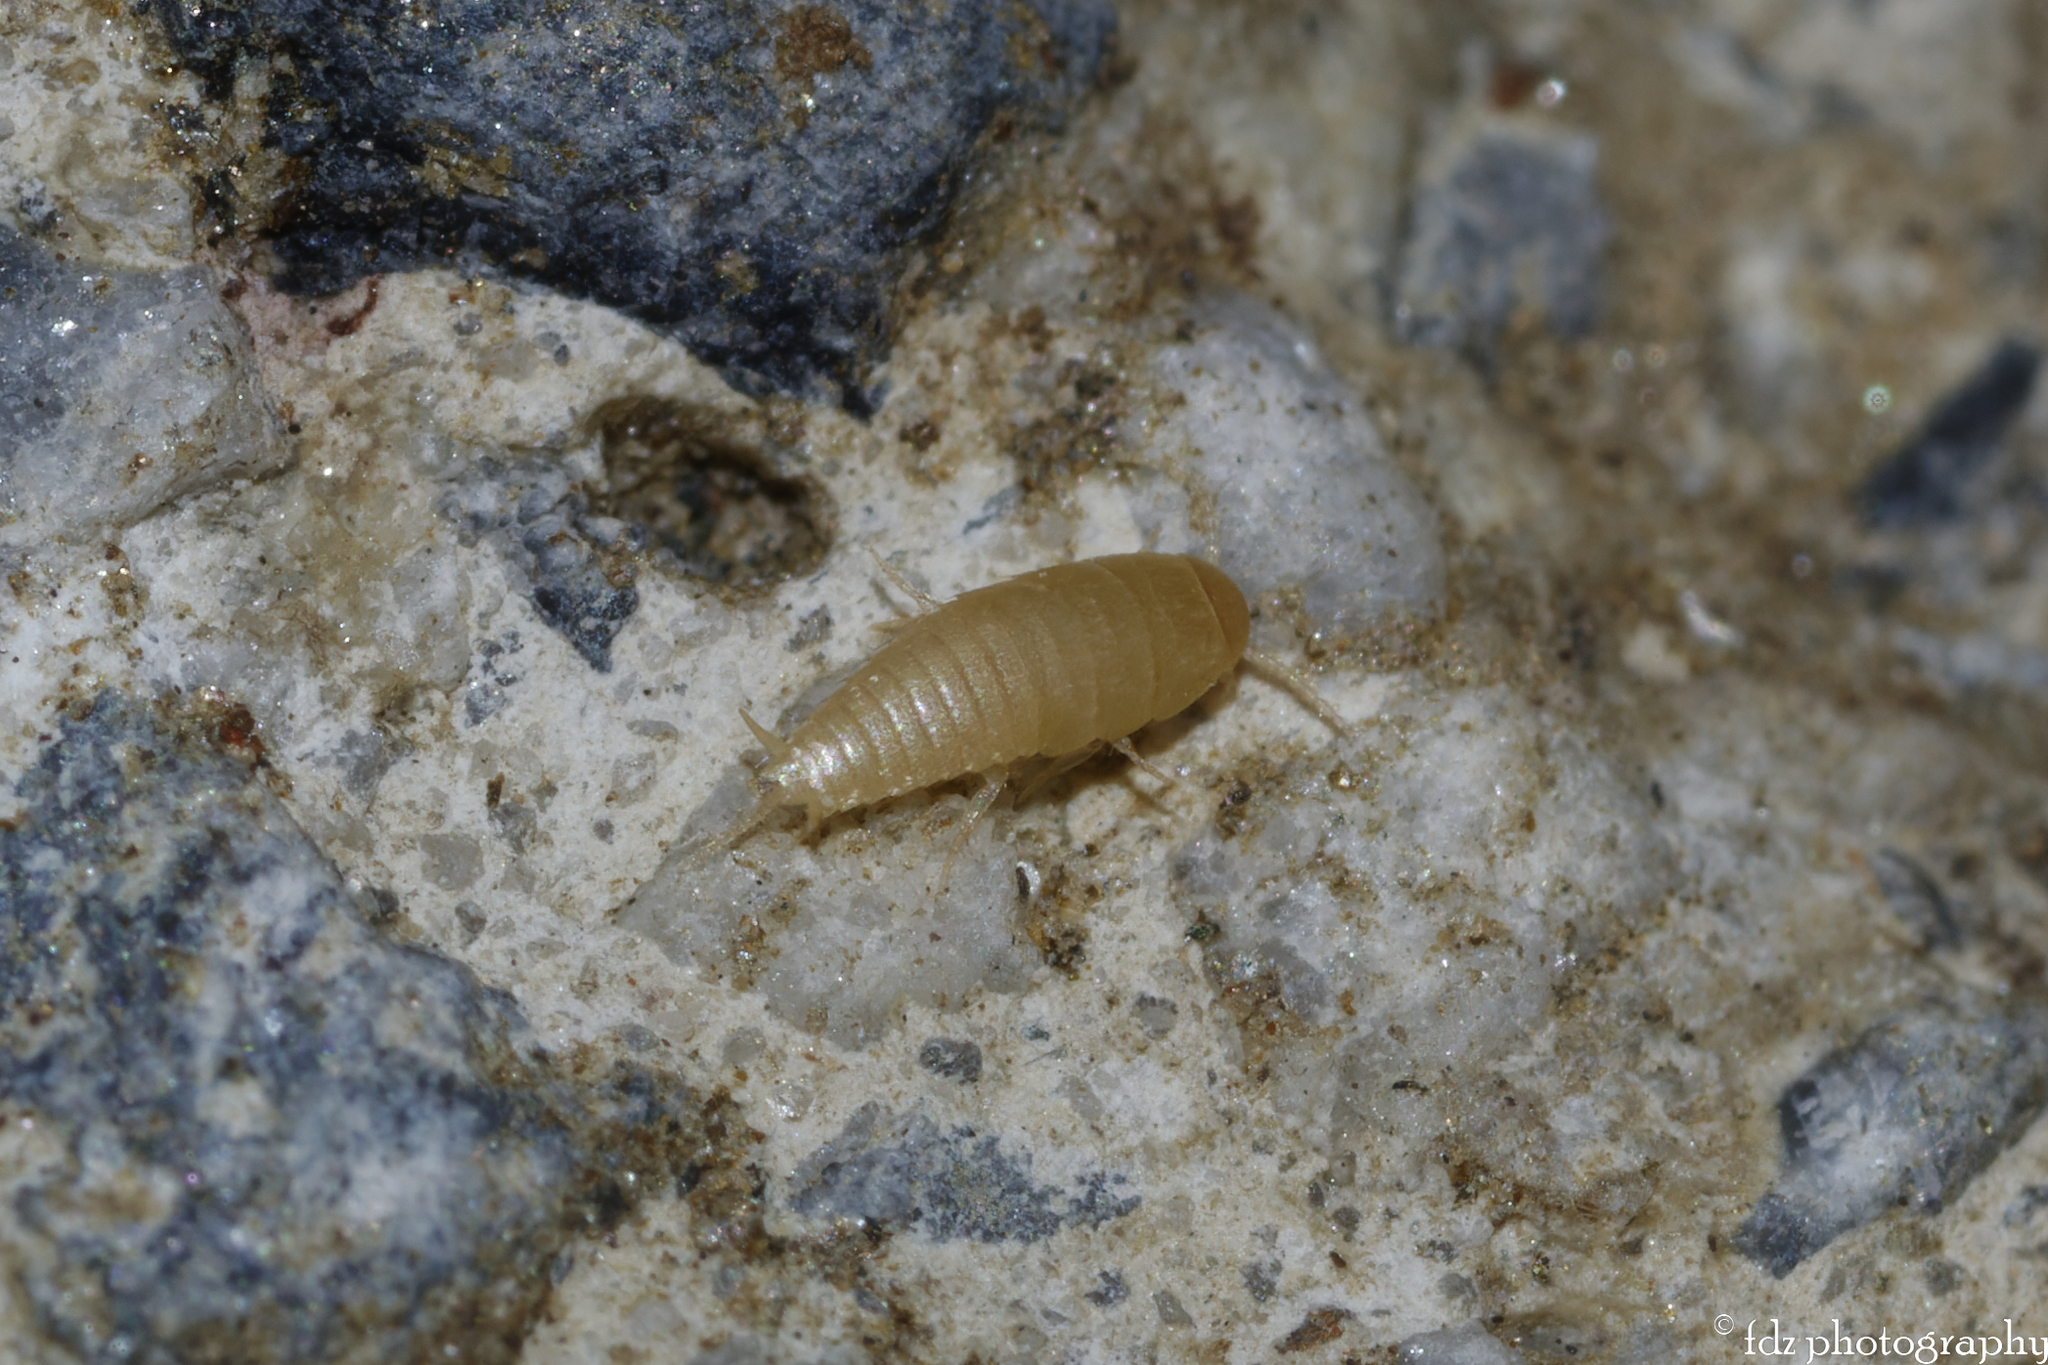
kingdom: Animalia
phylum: Arthropoda
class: Insecta
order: Zygentoma
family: Nicoletiidae
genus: Proatelurina
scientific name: Proatelurina pseudolepisma
